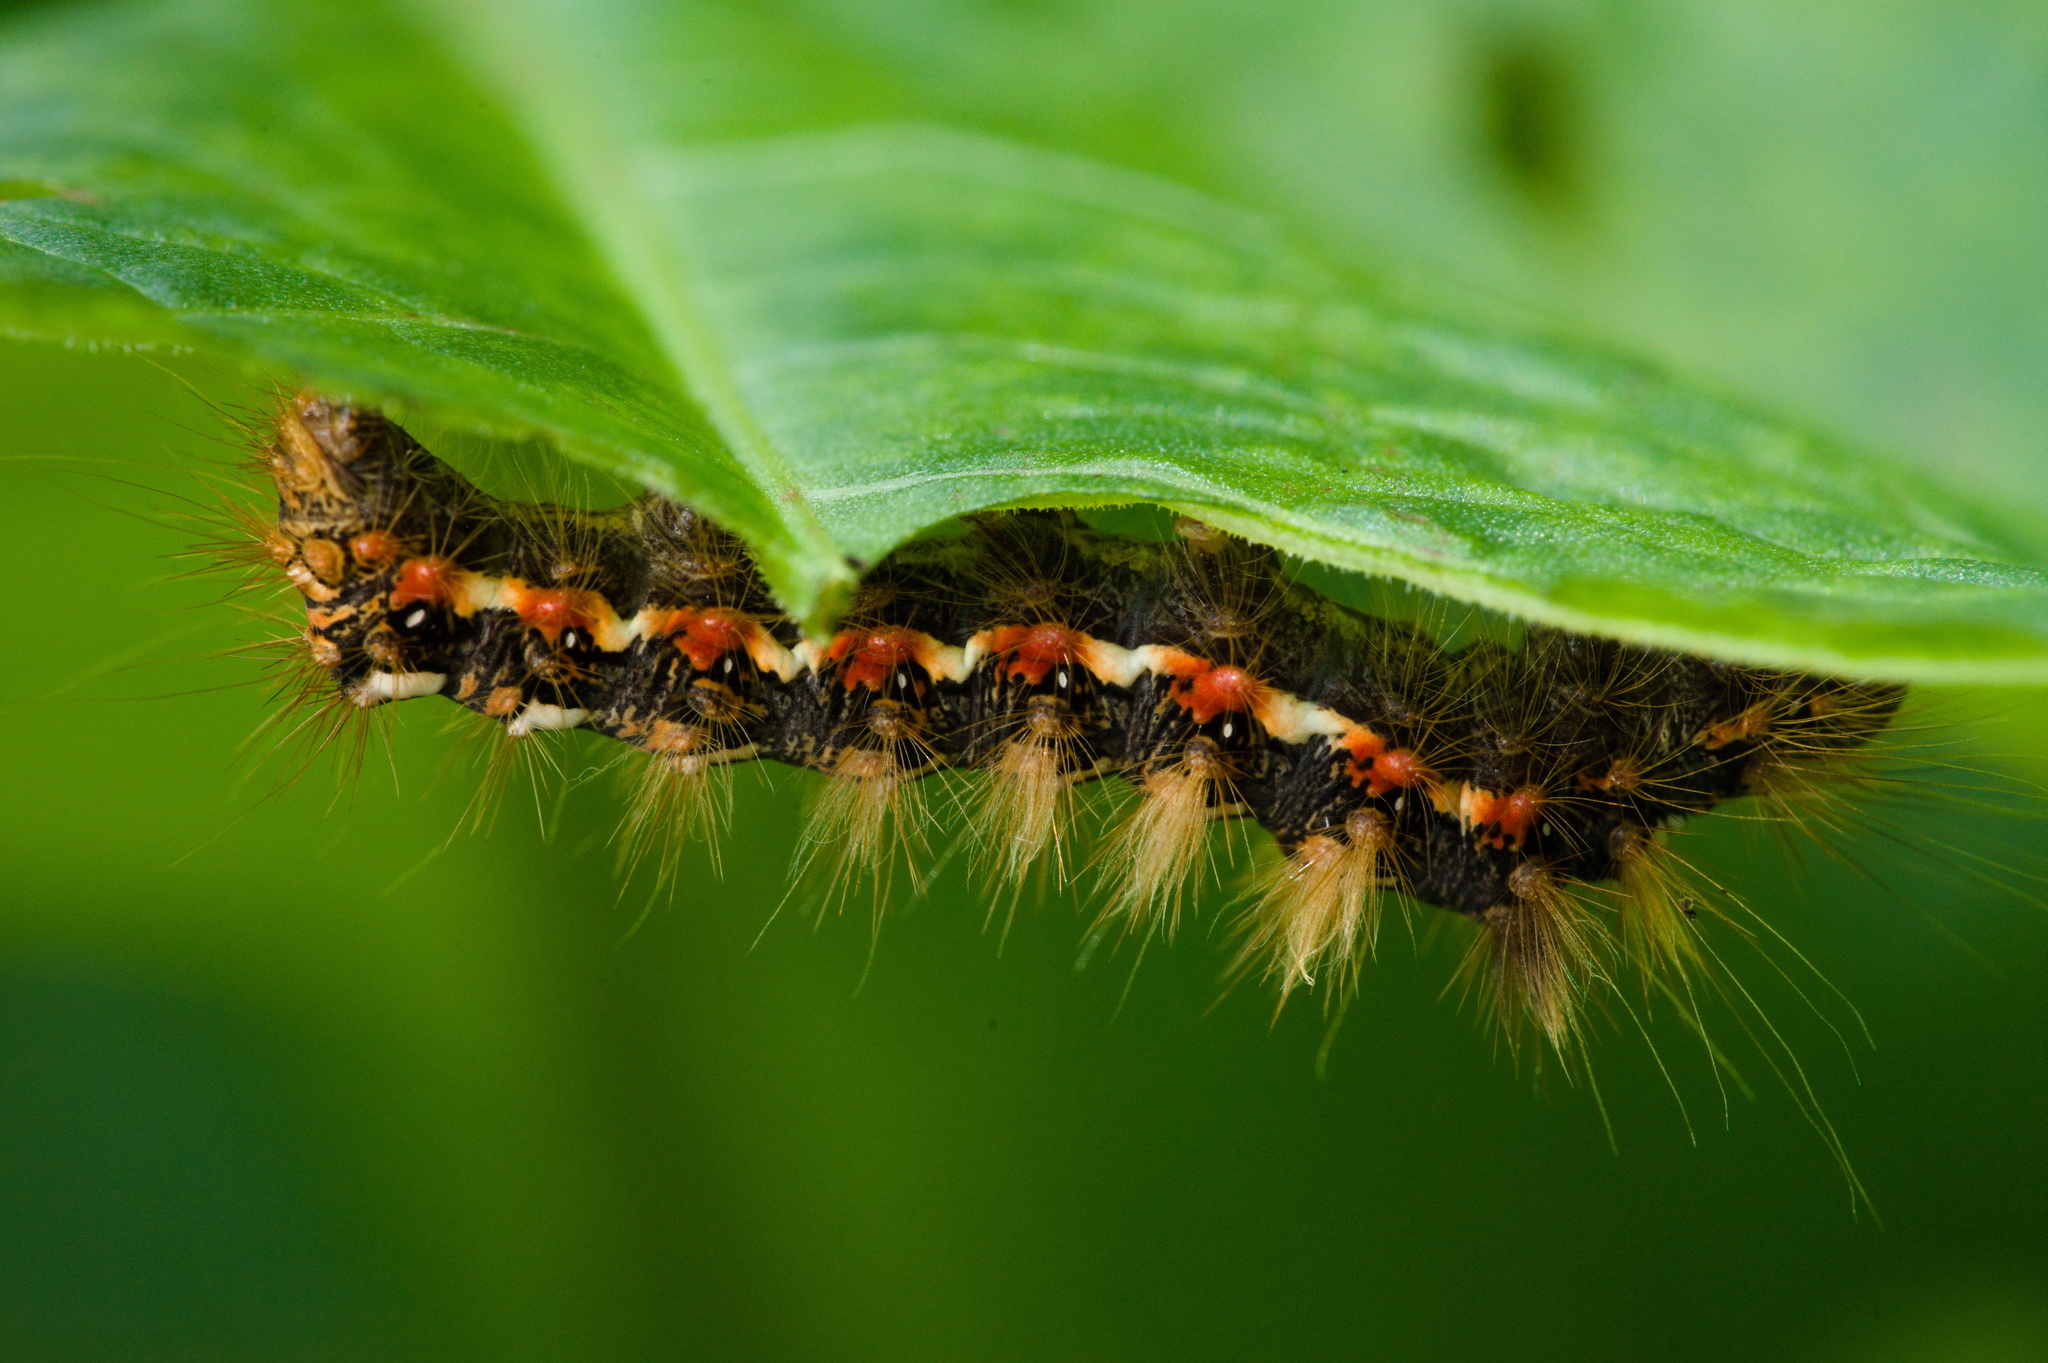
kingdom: Animalia
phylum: Arthropoda
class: Insecta
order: Lepidoptera
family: Noctuidae
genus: Acronicta
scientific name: Acronicta rumicis
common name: Knot grass
